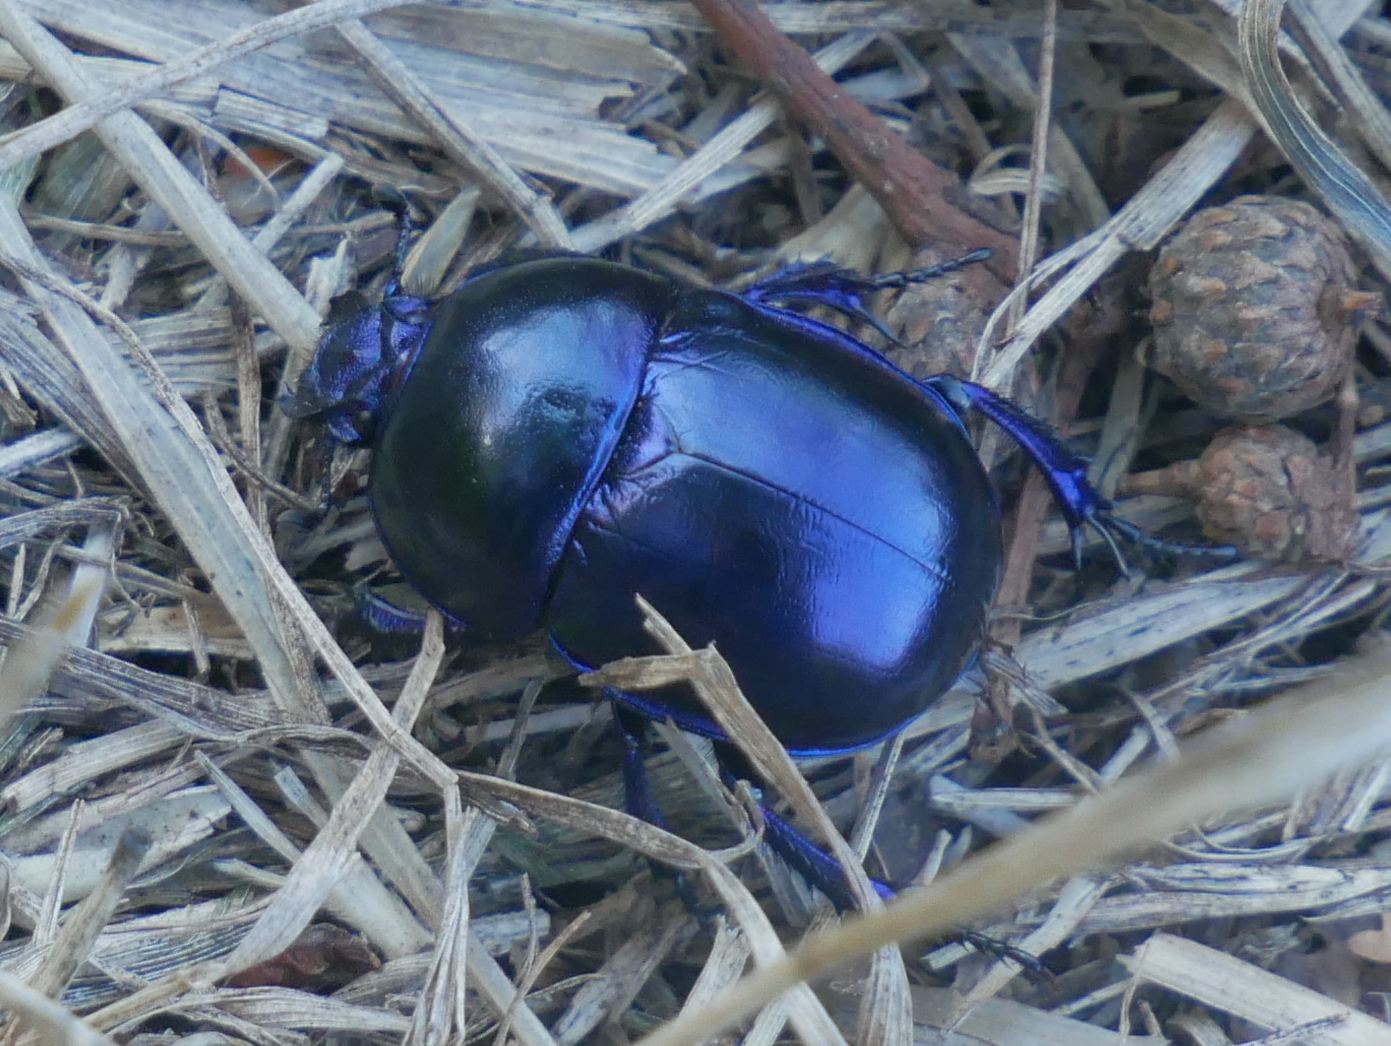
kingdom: Animalia
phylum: Arthropoda
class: Insecta
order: Coleoptera
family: Geotrupidae
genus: Trypocopris
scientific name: Trypocopris vernalis
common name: Spring dumbledor
